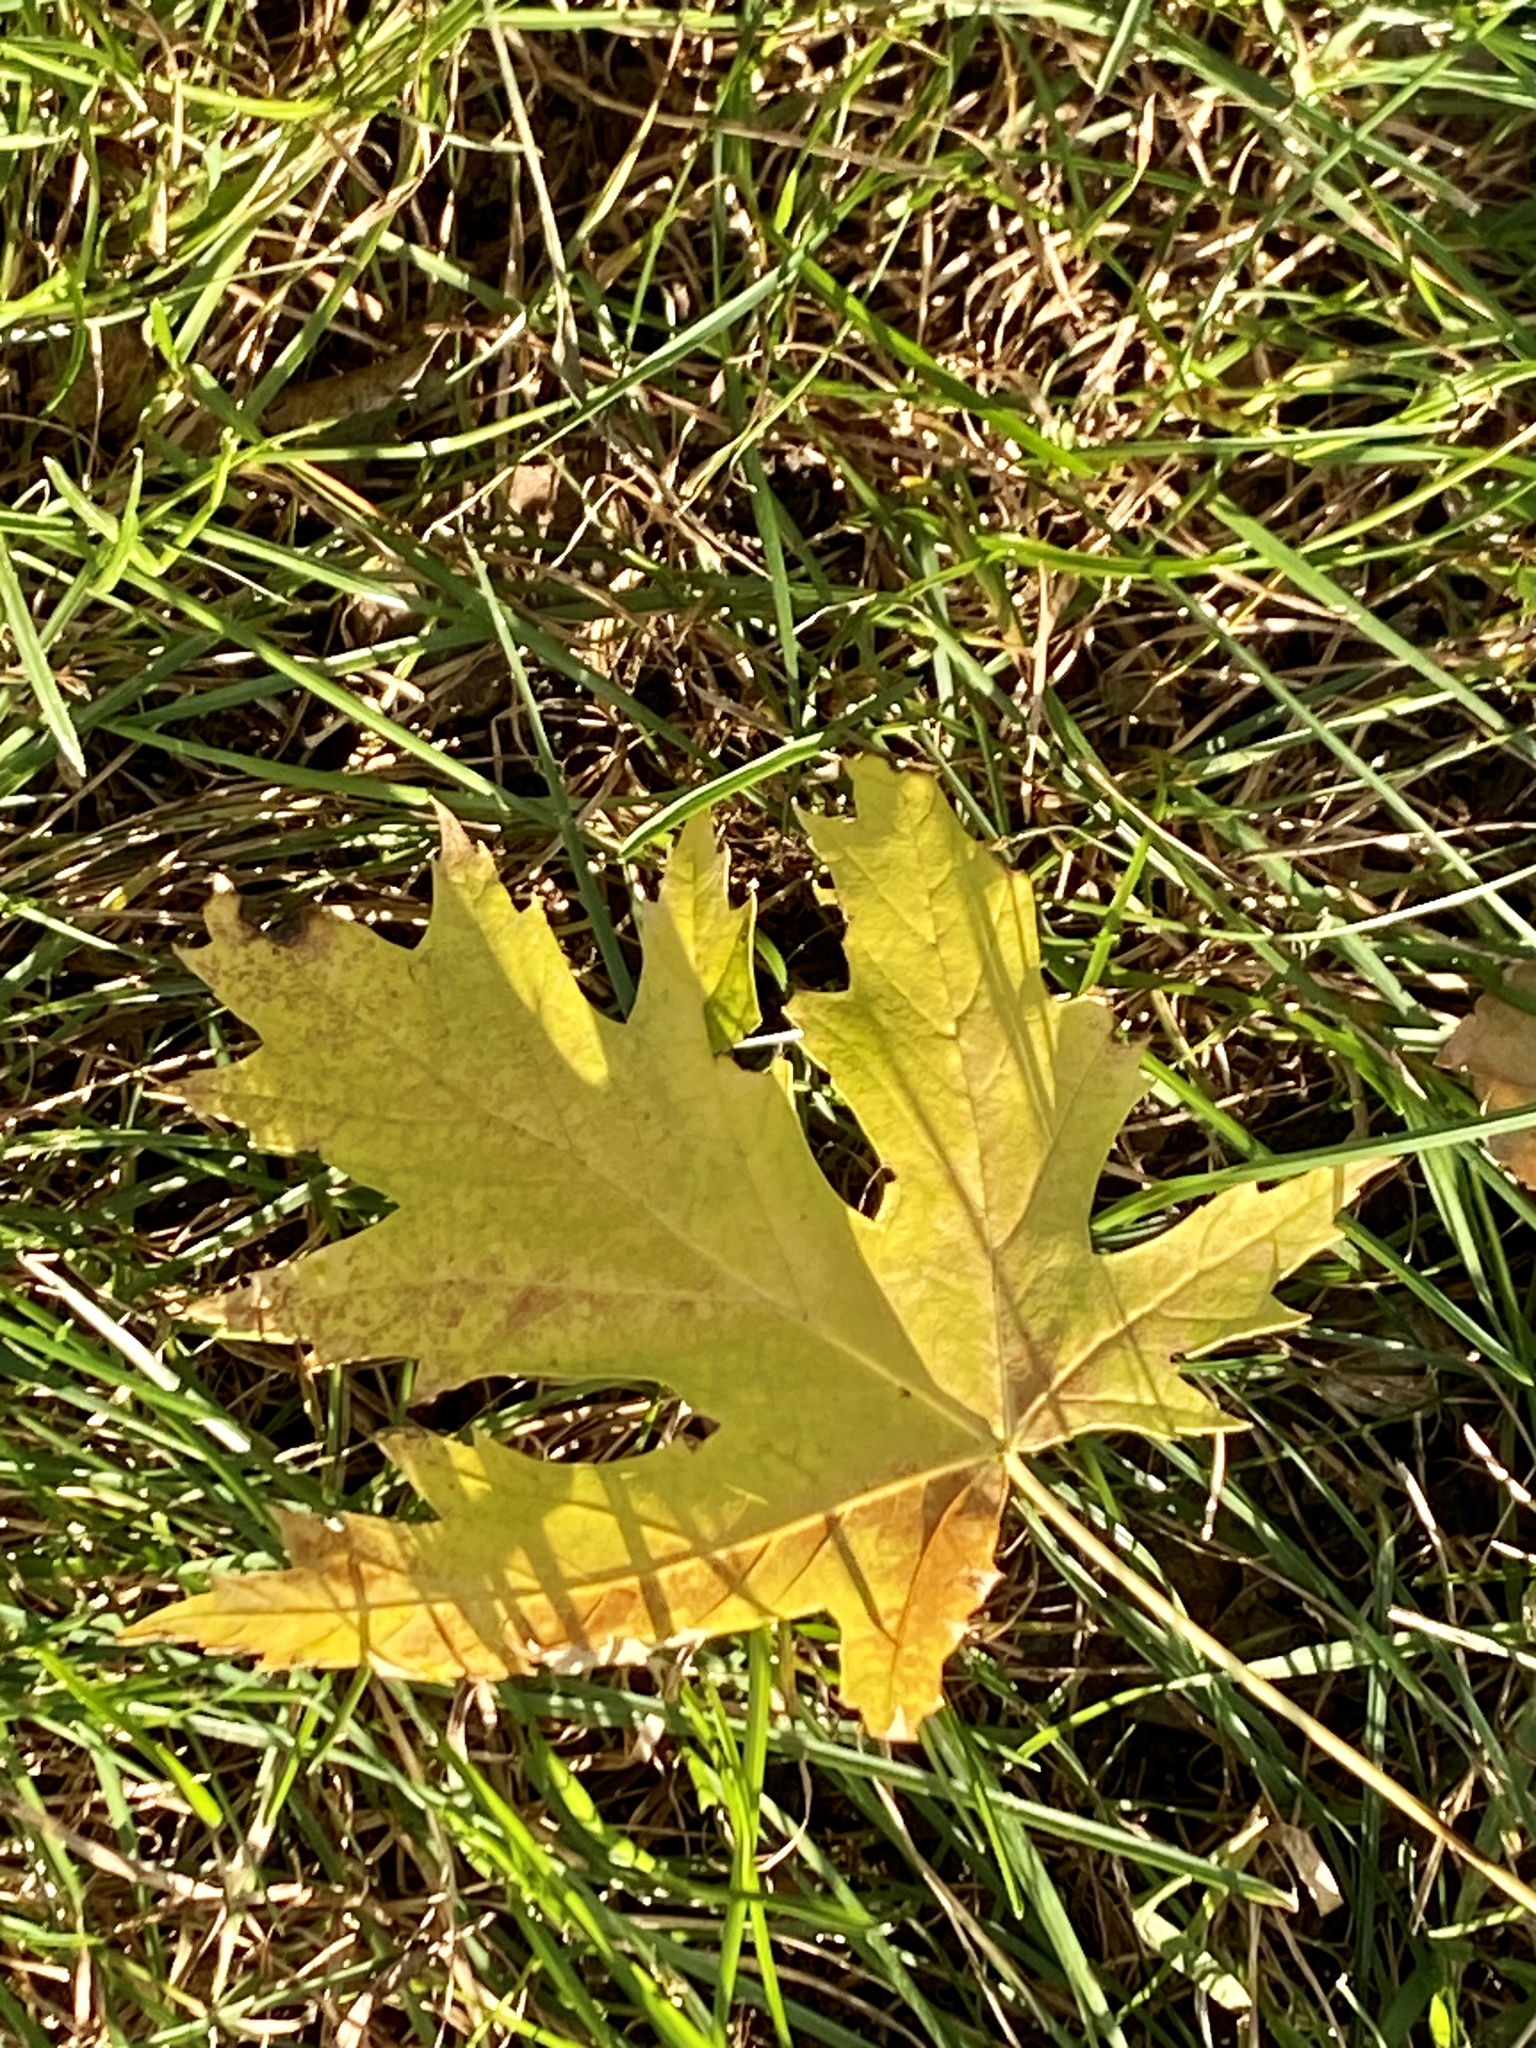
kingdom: Plantae
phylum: Tracheophyta
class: Magnoliopsida
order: Sapindales
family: Sapindaceae
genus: Acer
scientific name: Acer saccharinum
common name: Silver maple
